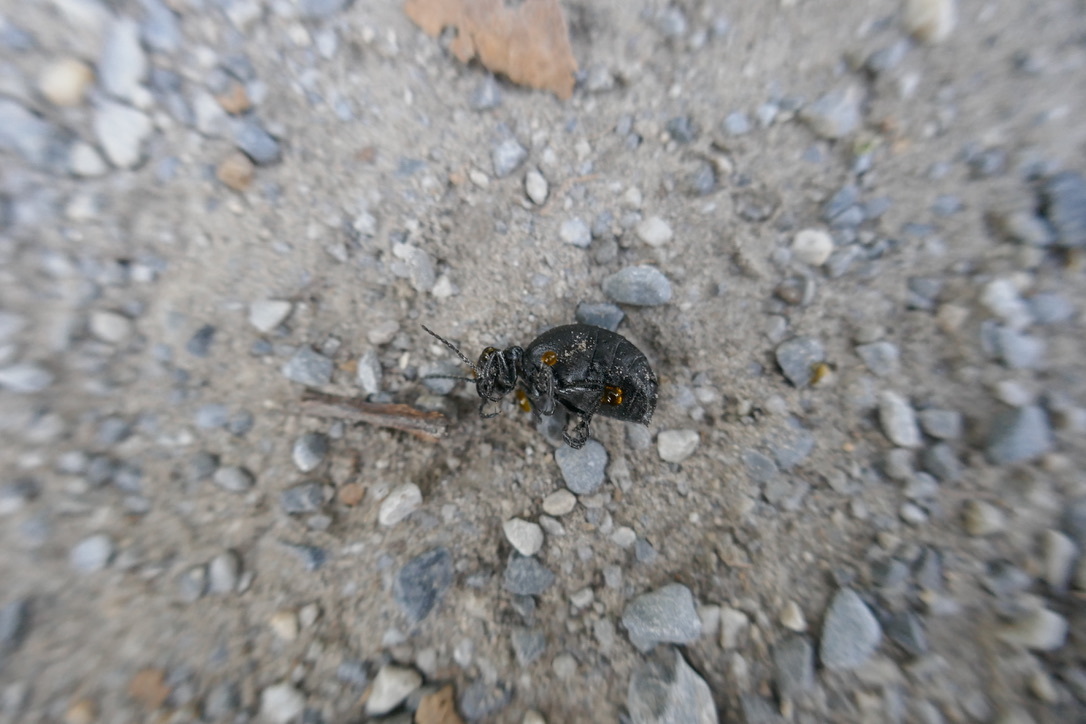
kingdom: Animalia
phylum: Arthropoda
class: Insecta
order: Coleoptera
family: Meloidae
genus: Meloe
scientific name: Meloe rugosus
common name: Rugged oil-beetle
